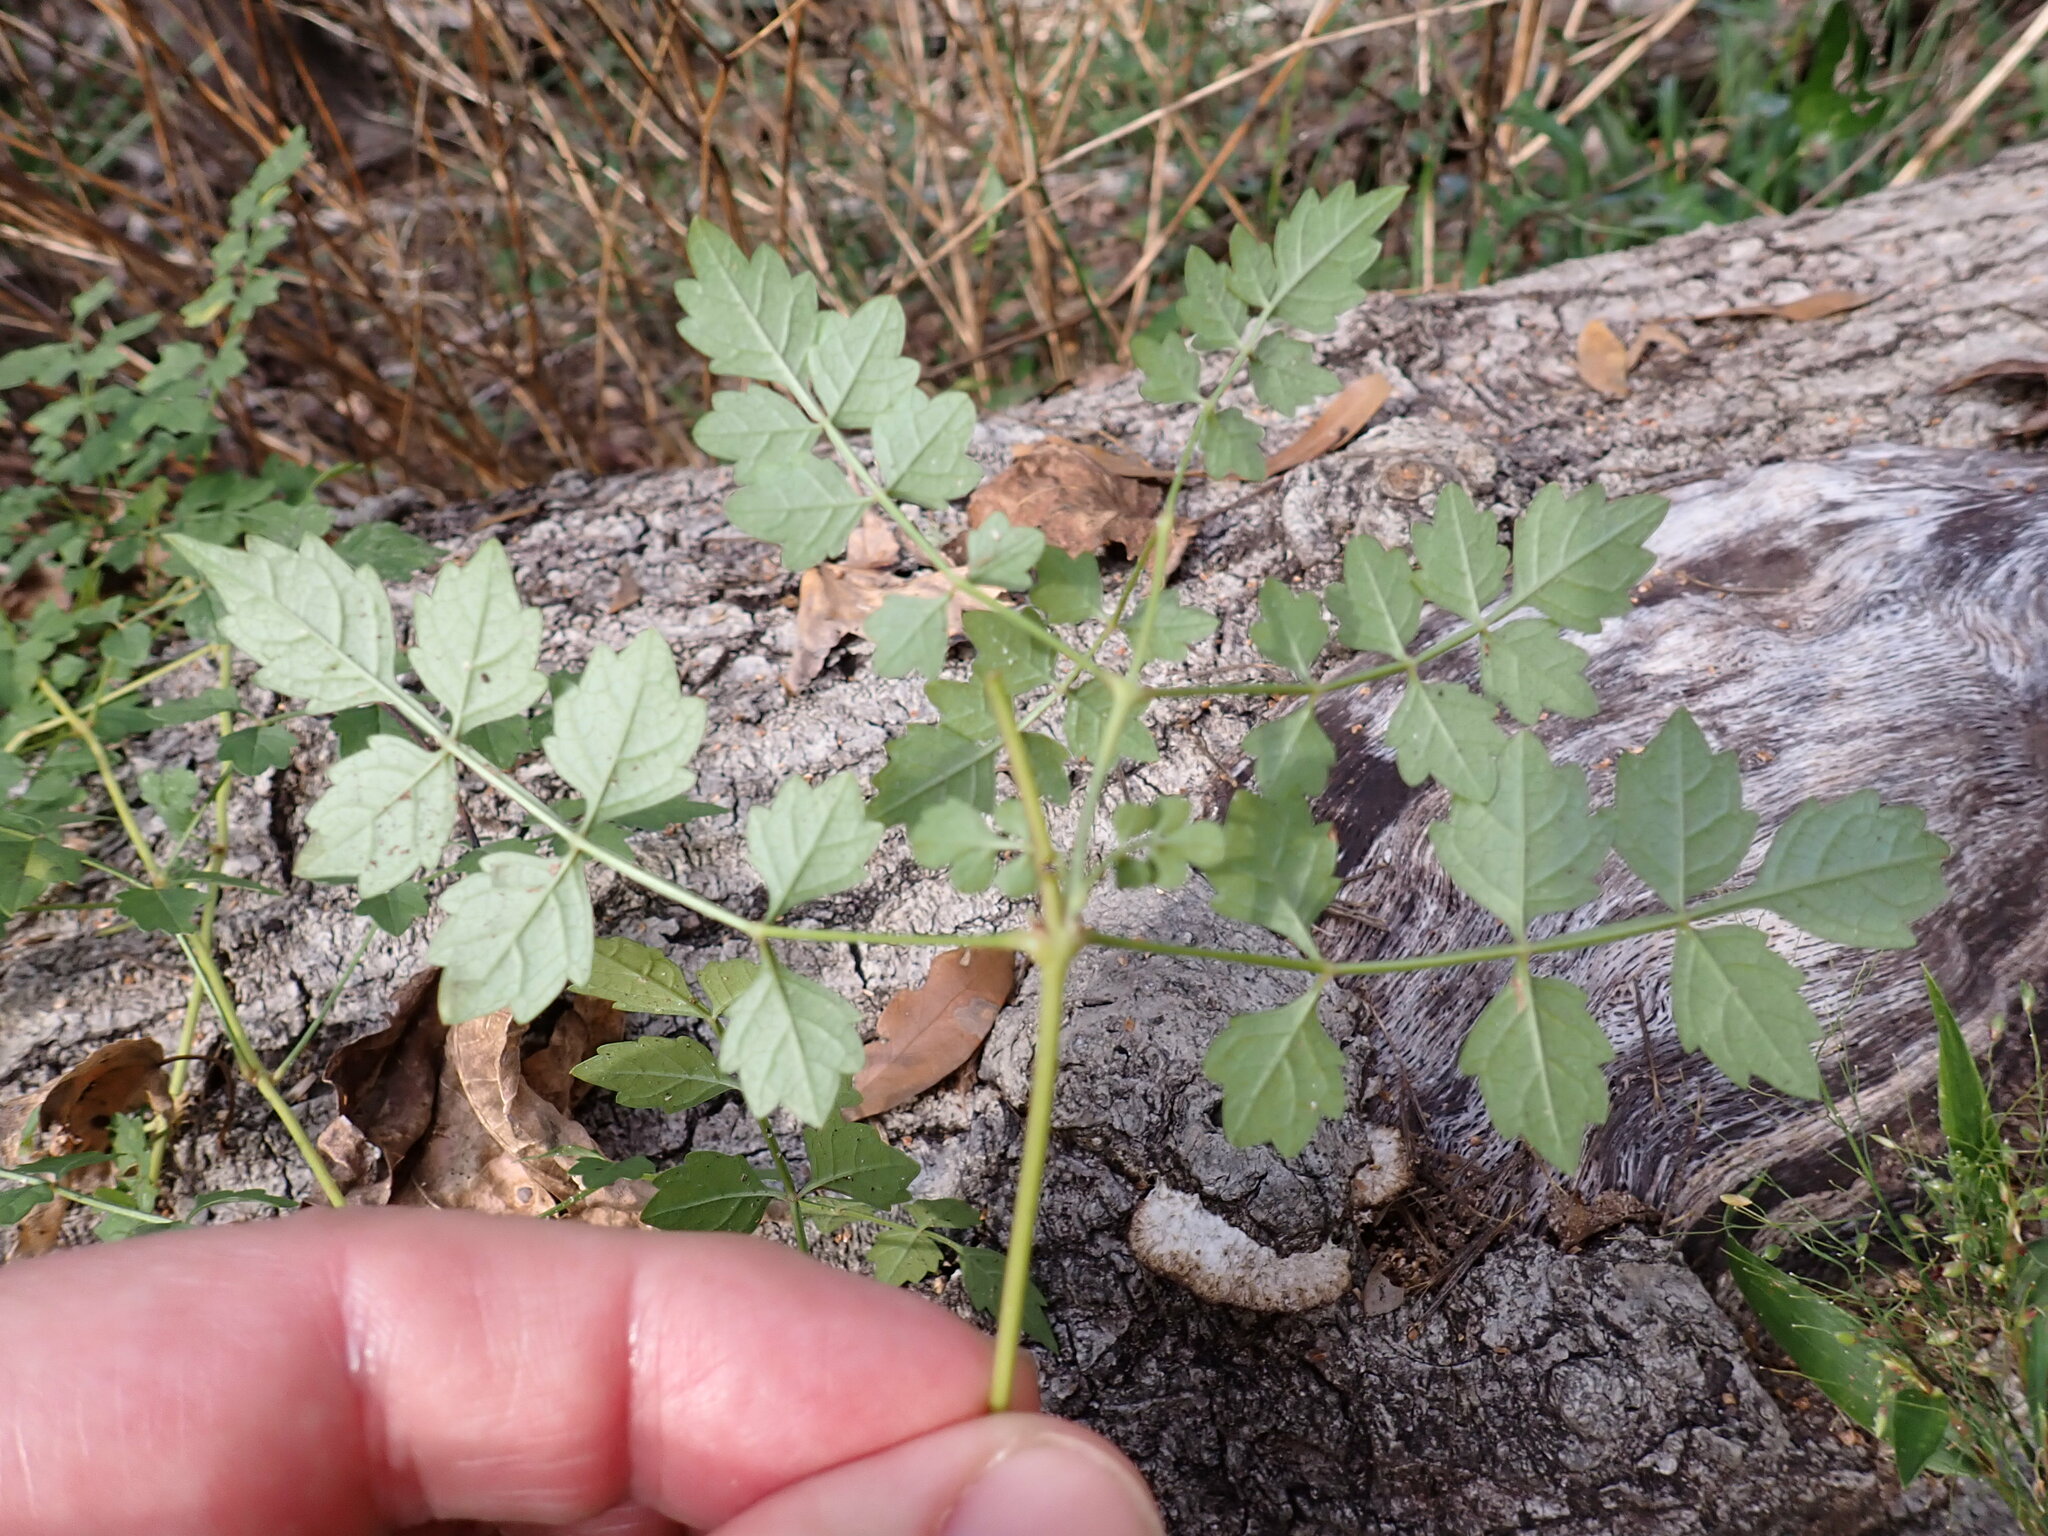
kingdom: Plantae
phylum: Tracheophyta
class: Magnoliopsida
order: Lamiales
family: Bignoniaceae
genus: Campsis
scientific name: Campsis radicans
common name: Trumpet-creeper
